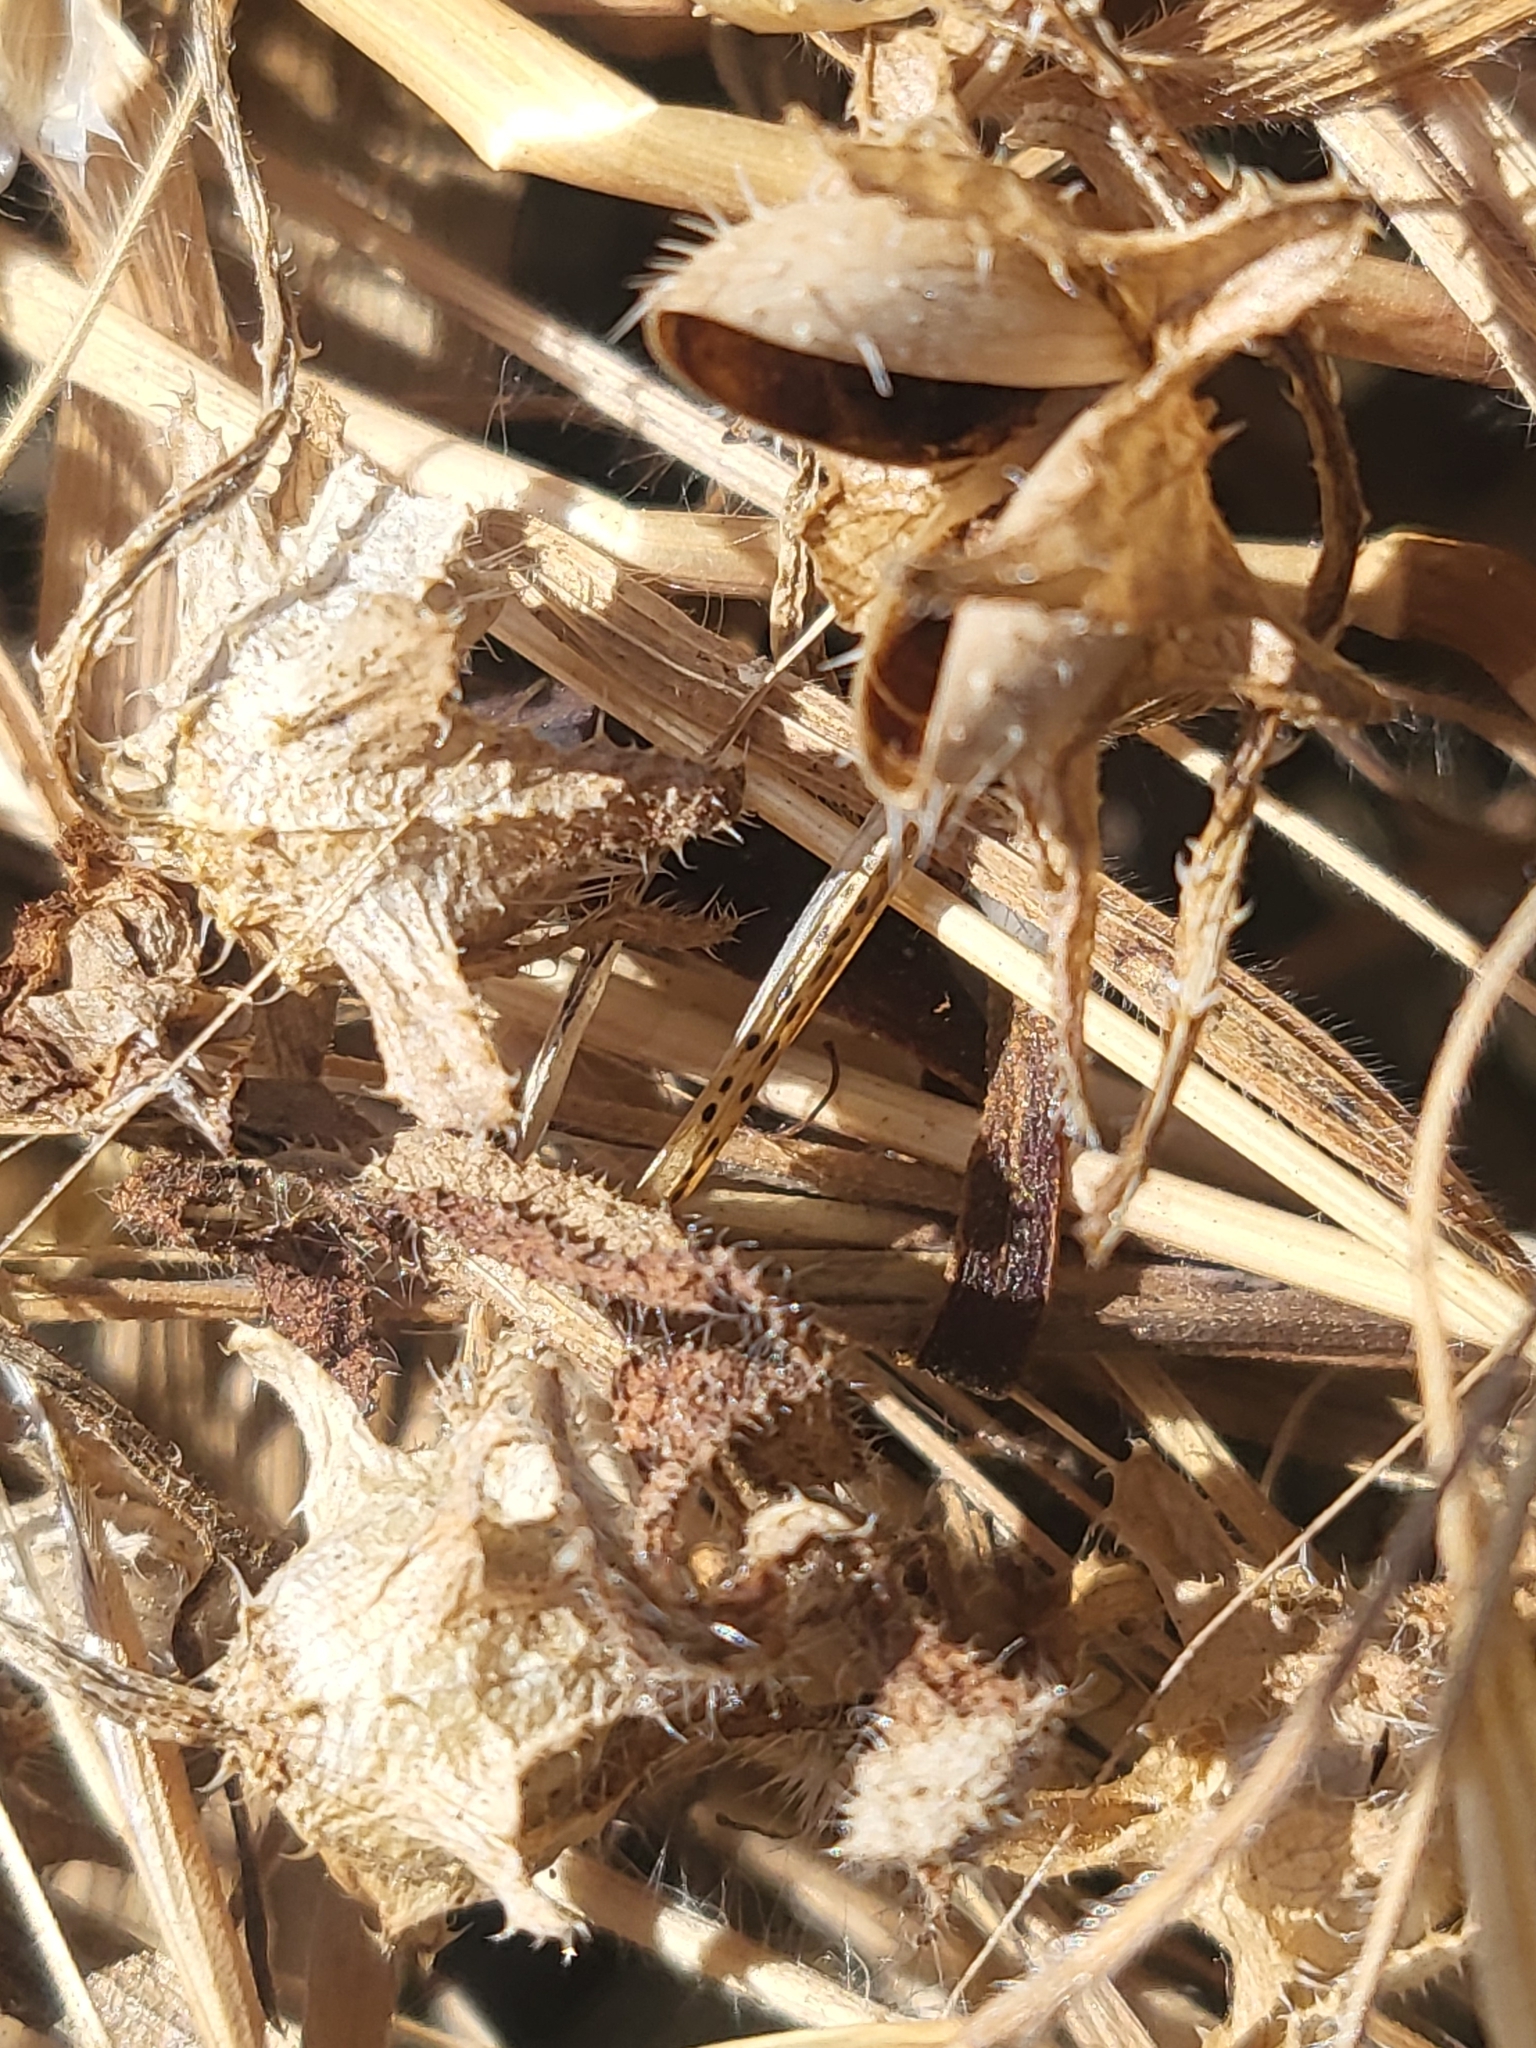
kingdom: Plantae
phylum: Tracheophyta
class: Magnoliopsida
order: Boraginales
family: Hydrophyllaceae
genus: Pholistoma
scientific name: Pholistoma auritum
